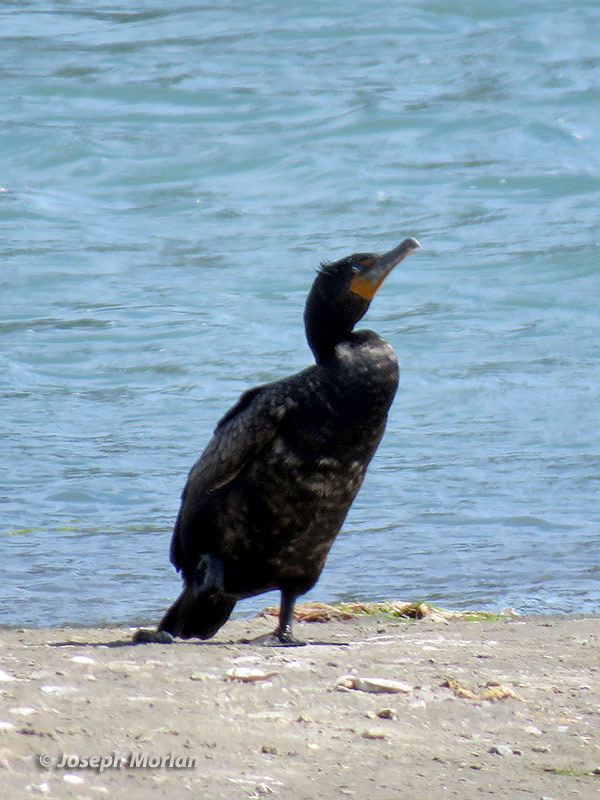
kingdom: Animalia
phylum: Chordata
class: Aves
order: Suliformes
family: Phalacrocoracidae
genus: Phalacrocorax
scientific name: Phalacrocorax auritus
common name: Double-crested cormorant
